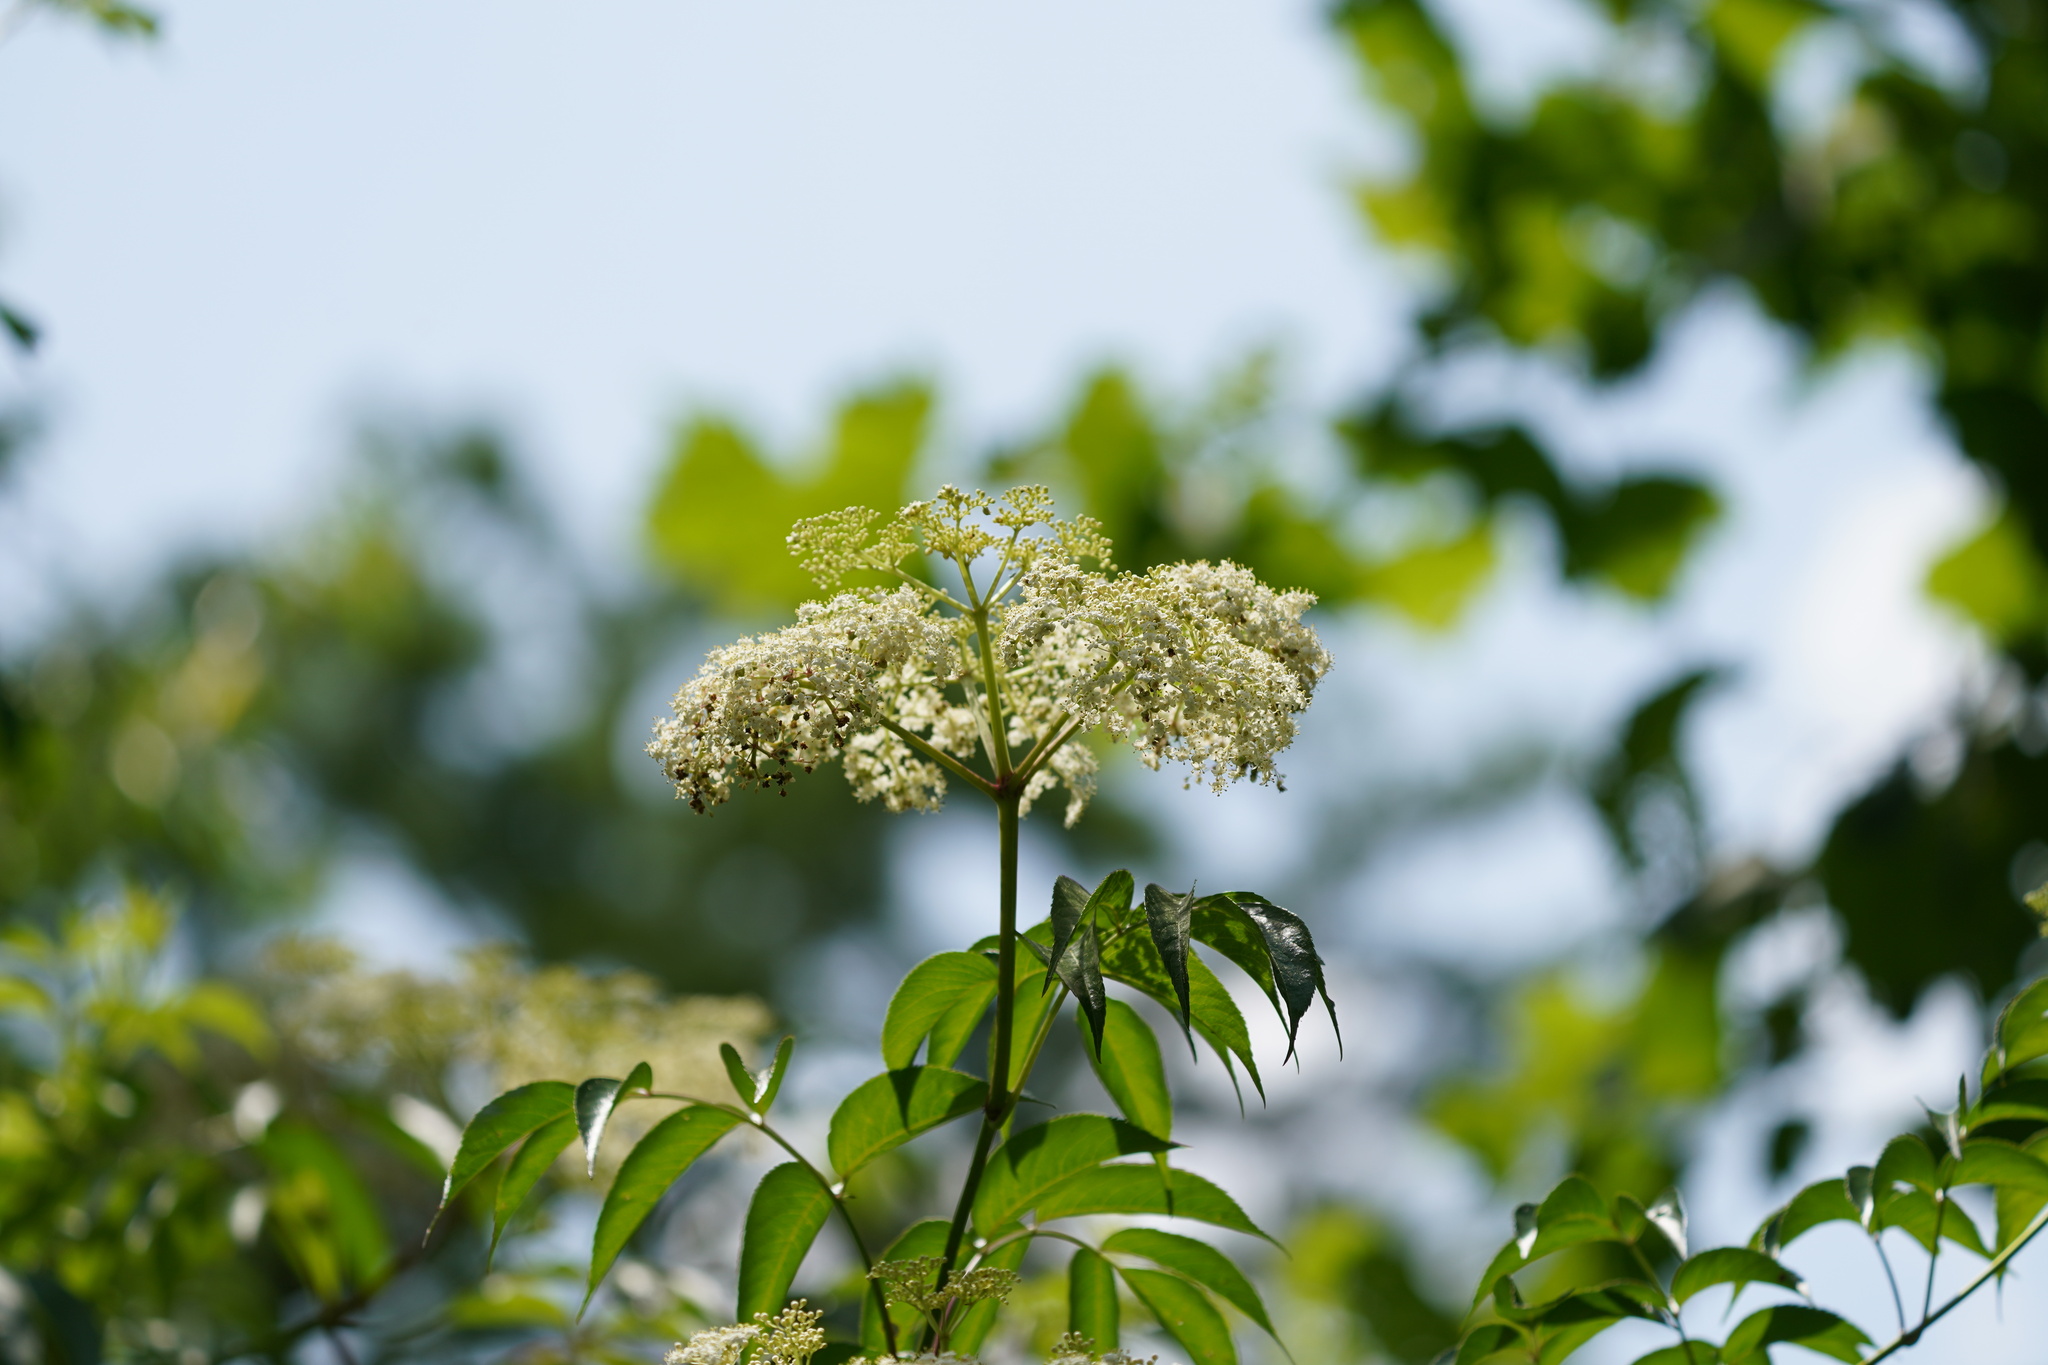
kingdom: Plantae
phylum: Tracheophyta
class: Magnoliopsida
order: Dipsacales
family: Viburnaceae
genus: Sambucus
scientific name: Sambucus canadensis
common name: American elder
